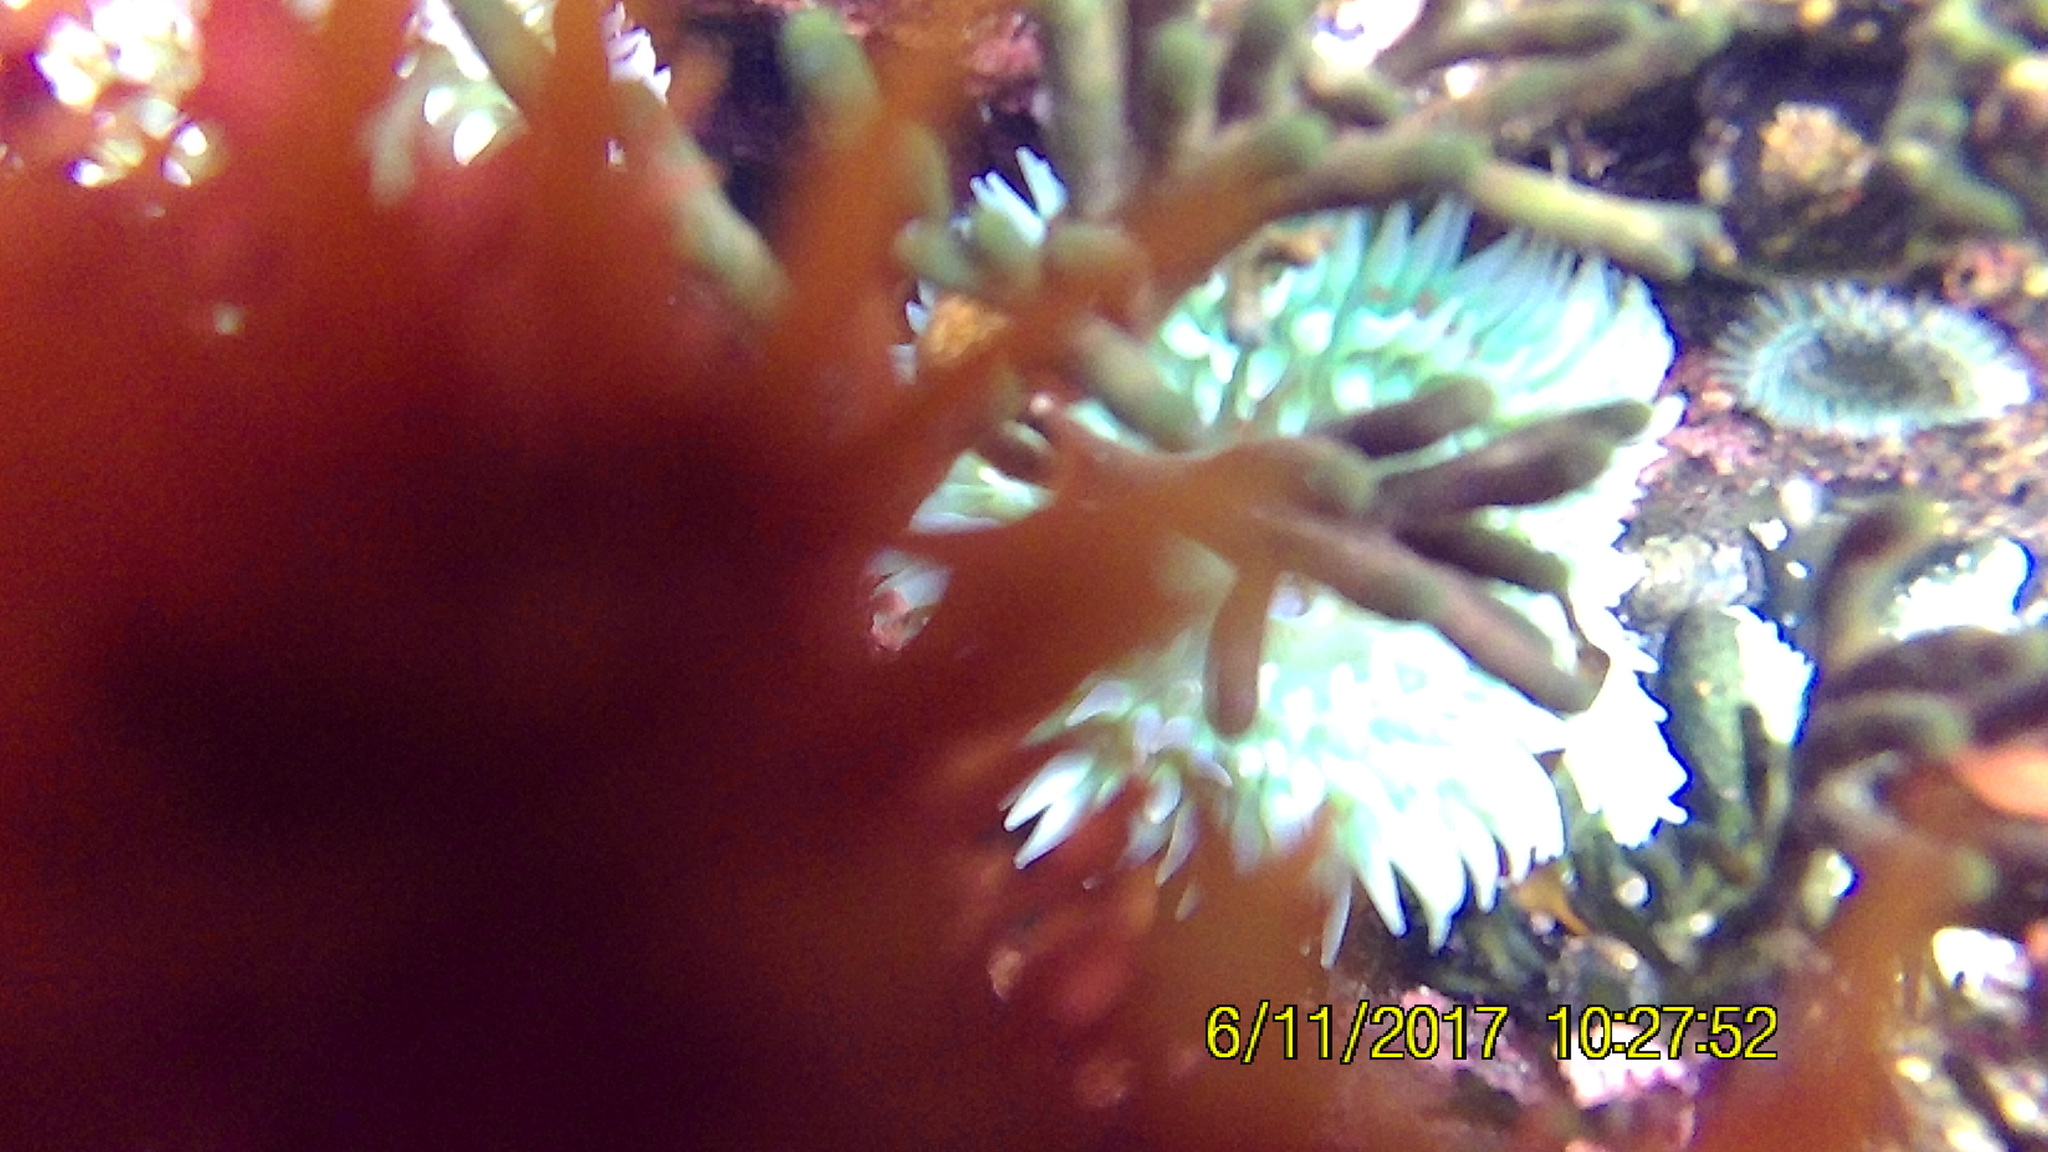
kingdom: Plantae
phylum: Chlorophyta
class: Ulvophyceae
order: Bryopsidales
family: Codiaceae
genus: Codium
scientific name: Codium fragile
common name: Dead man's fingers
